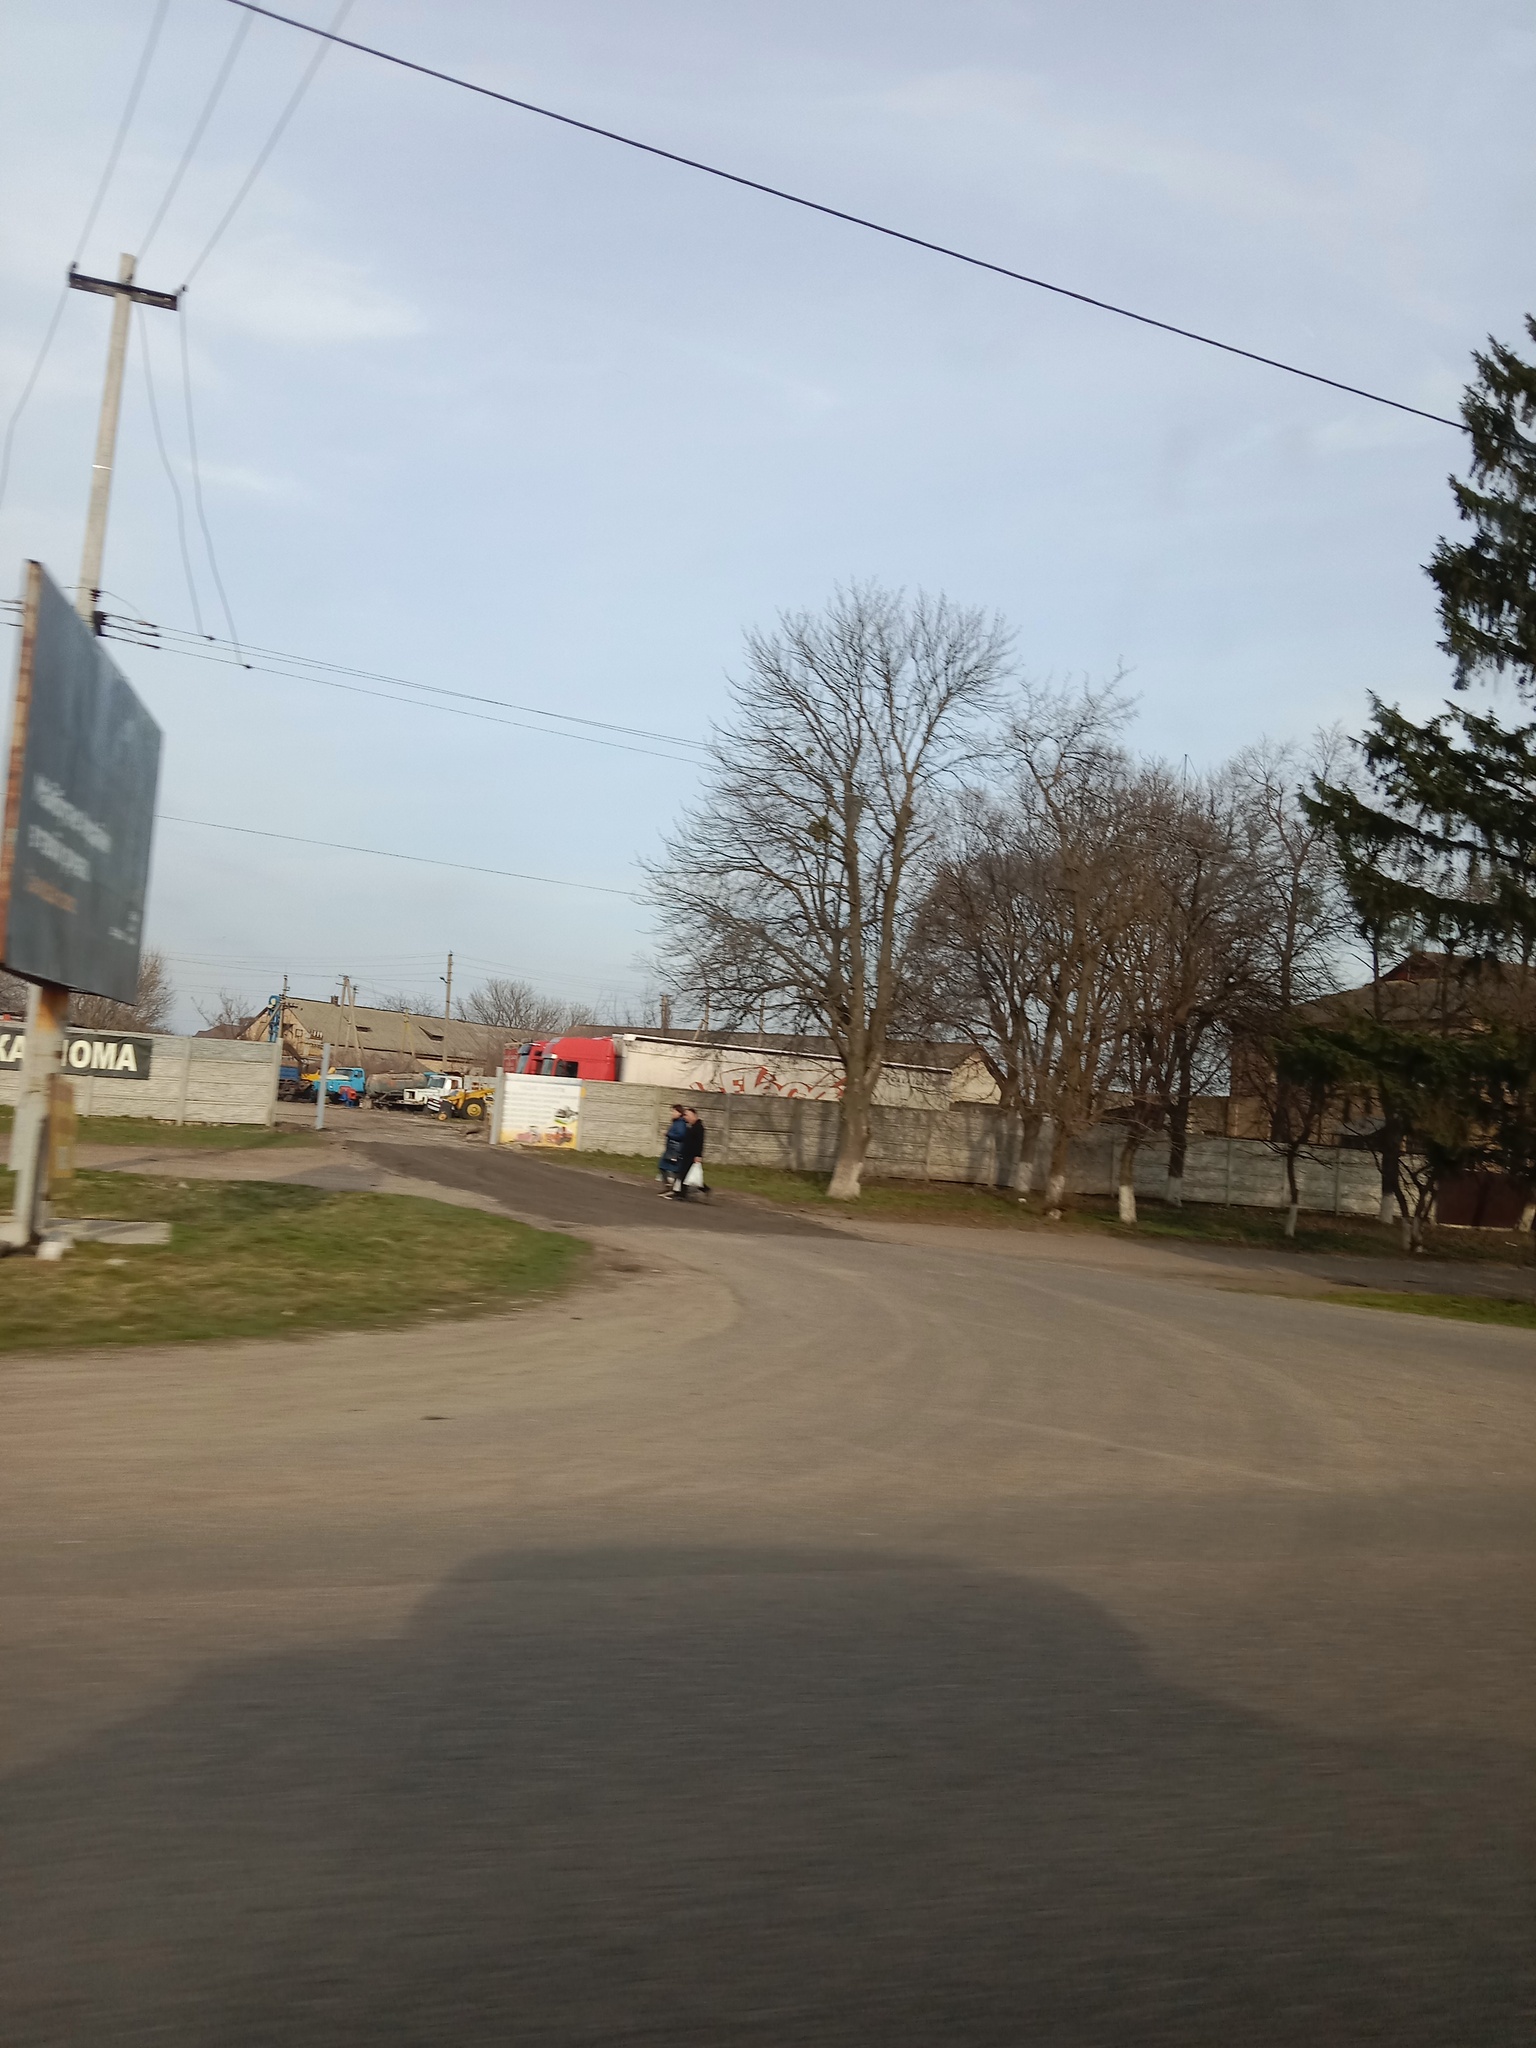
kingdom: Plantae
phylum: Tracheophyta
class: Magnoliopsida
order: Santalales
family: Viscaceae
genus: Viscum
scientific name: Viscum album
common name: Mistletoe
